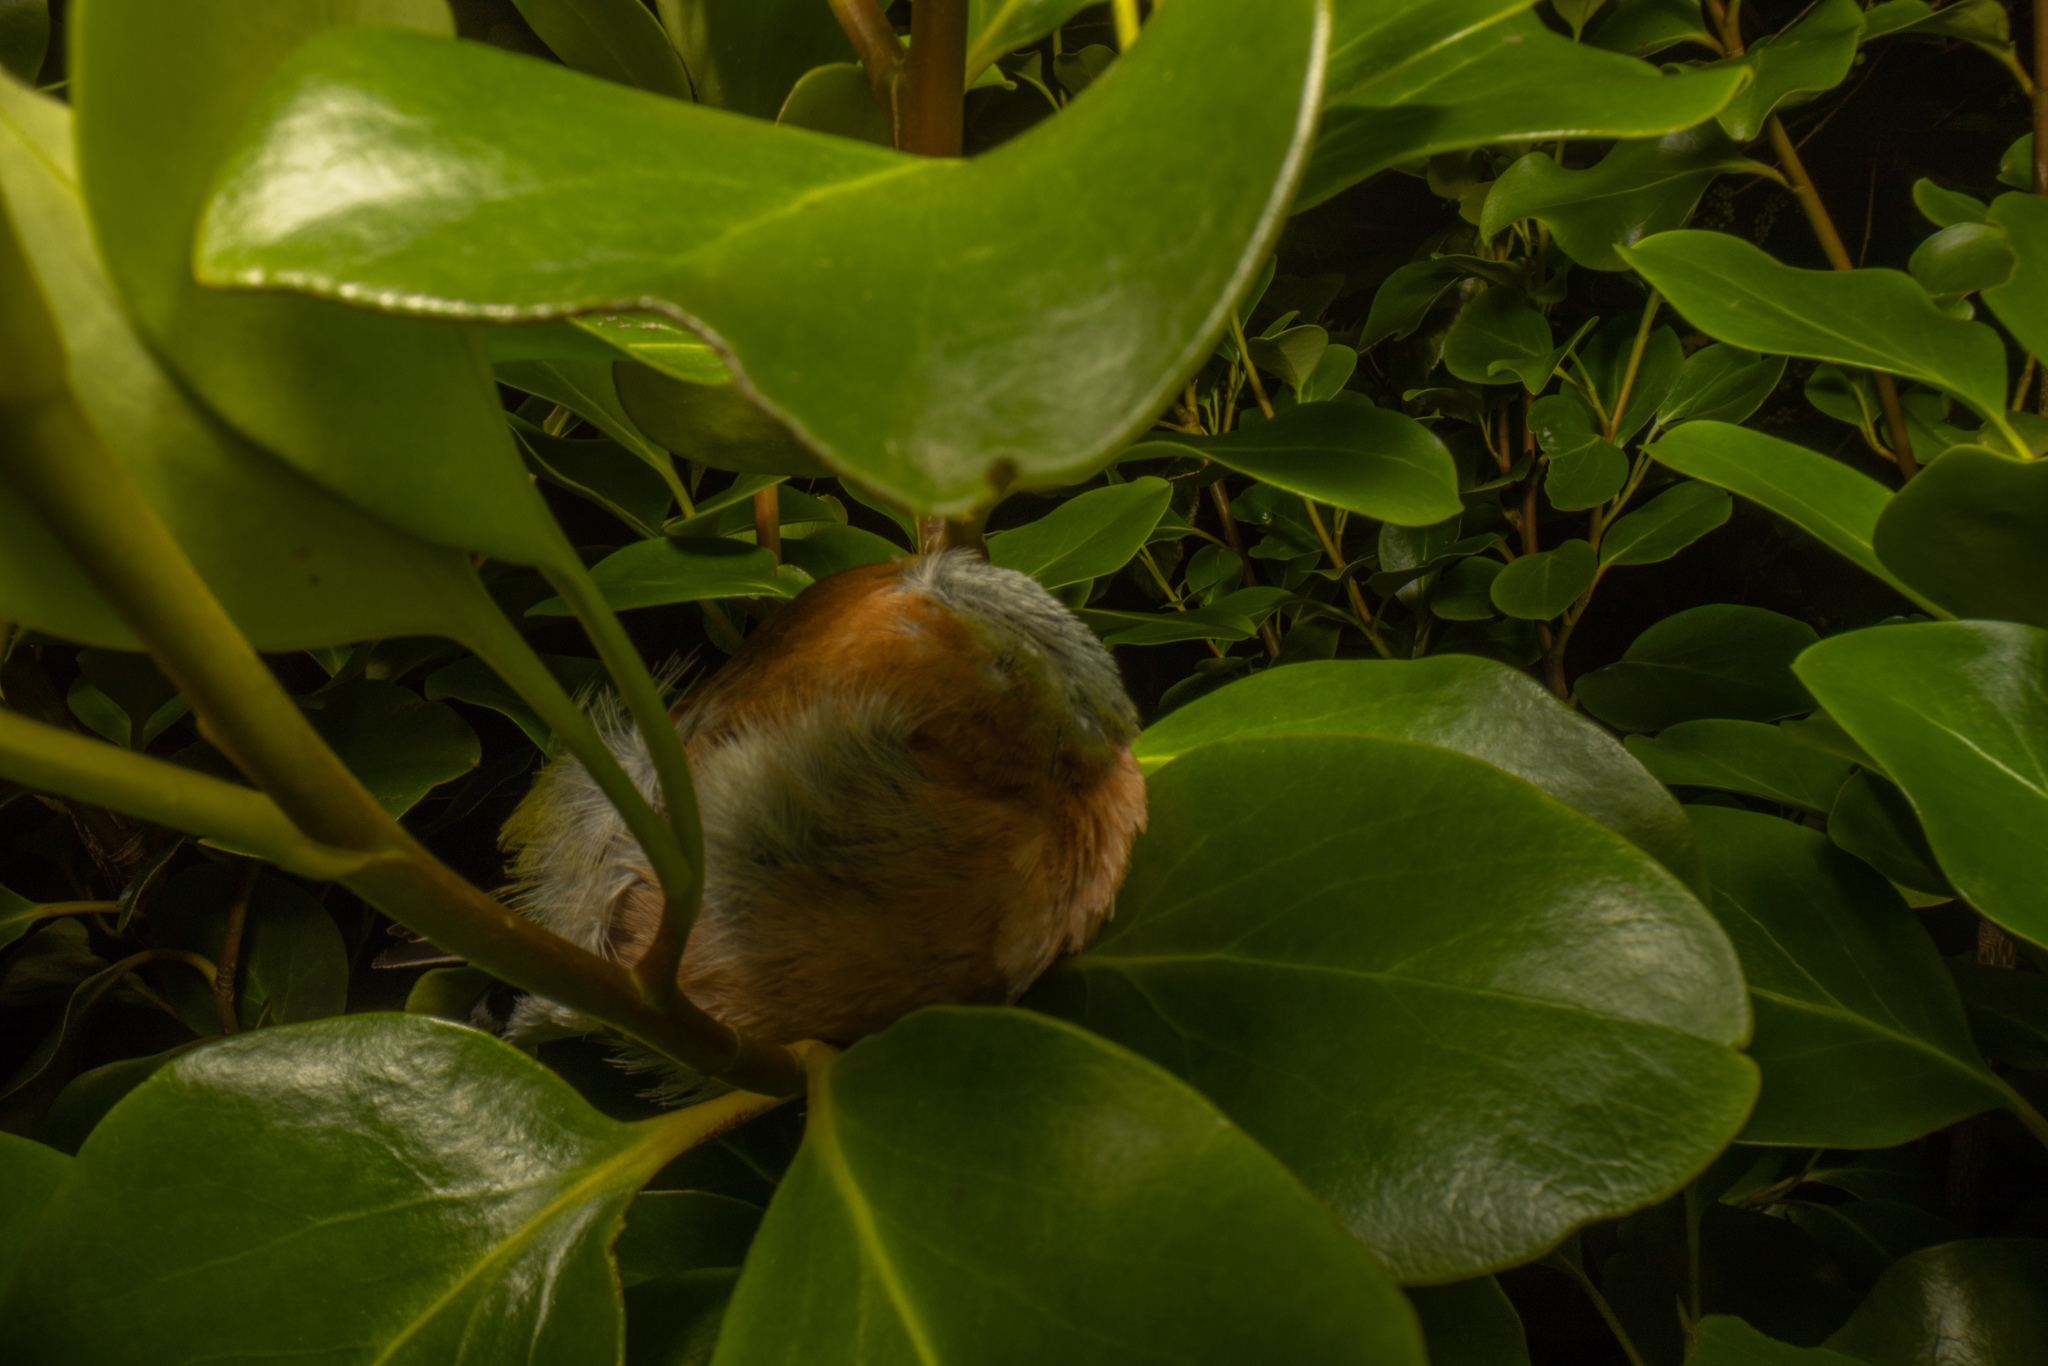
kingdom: Animalia
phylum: Chordata
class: Aves
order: Passeriformes
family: Fringillidae
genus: Fringilla
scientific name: Fringilla coelebs
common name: Common chaffinch
